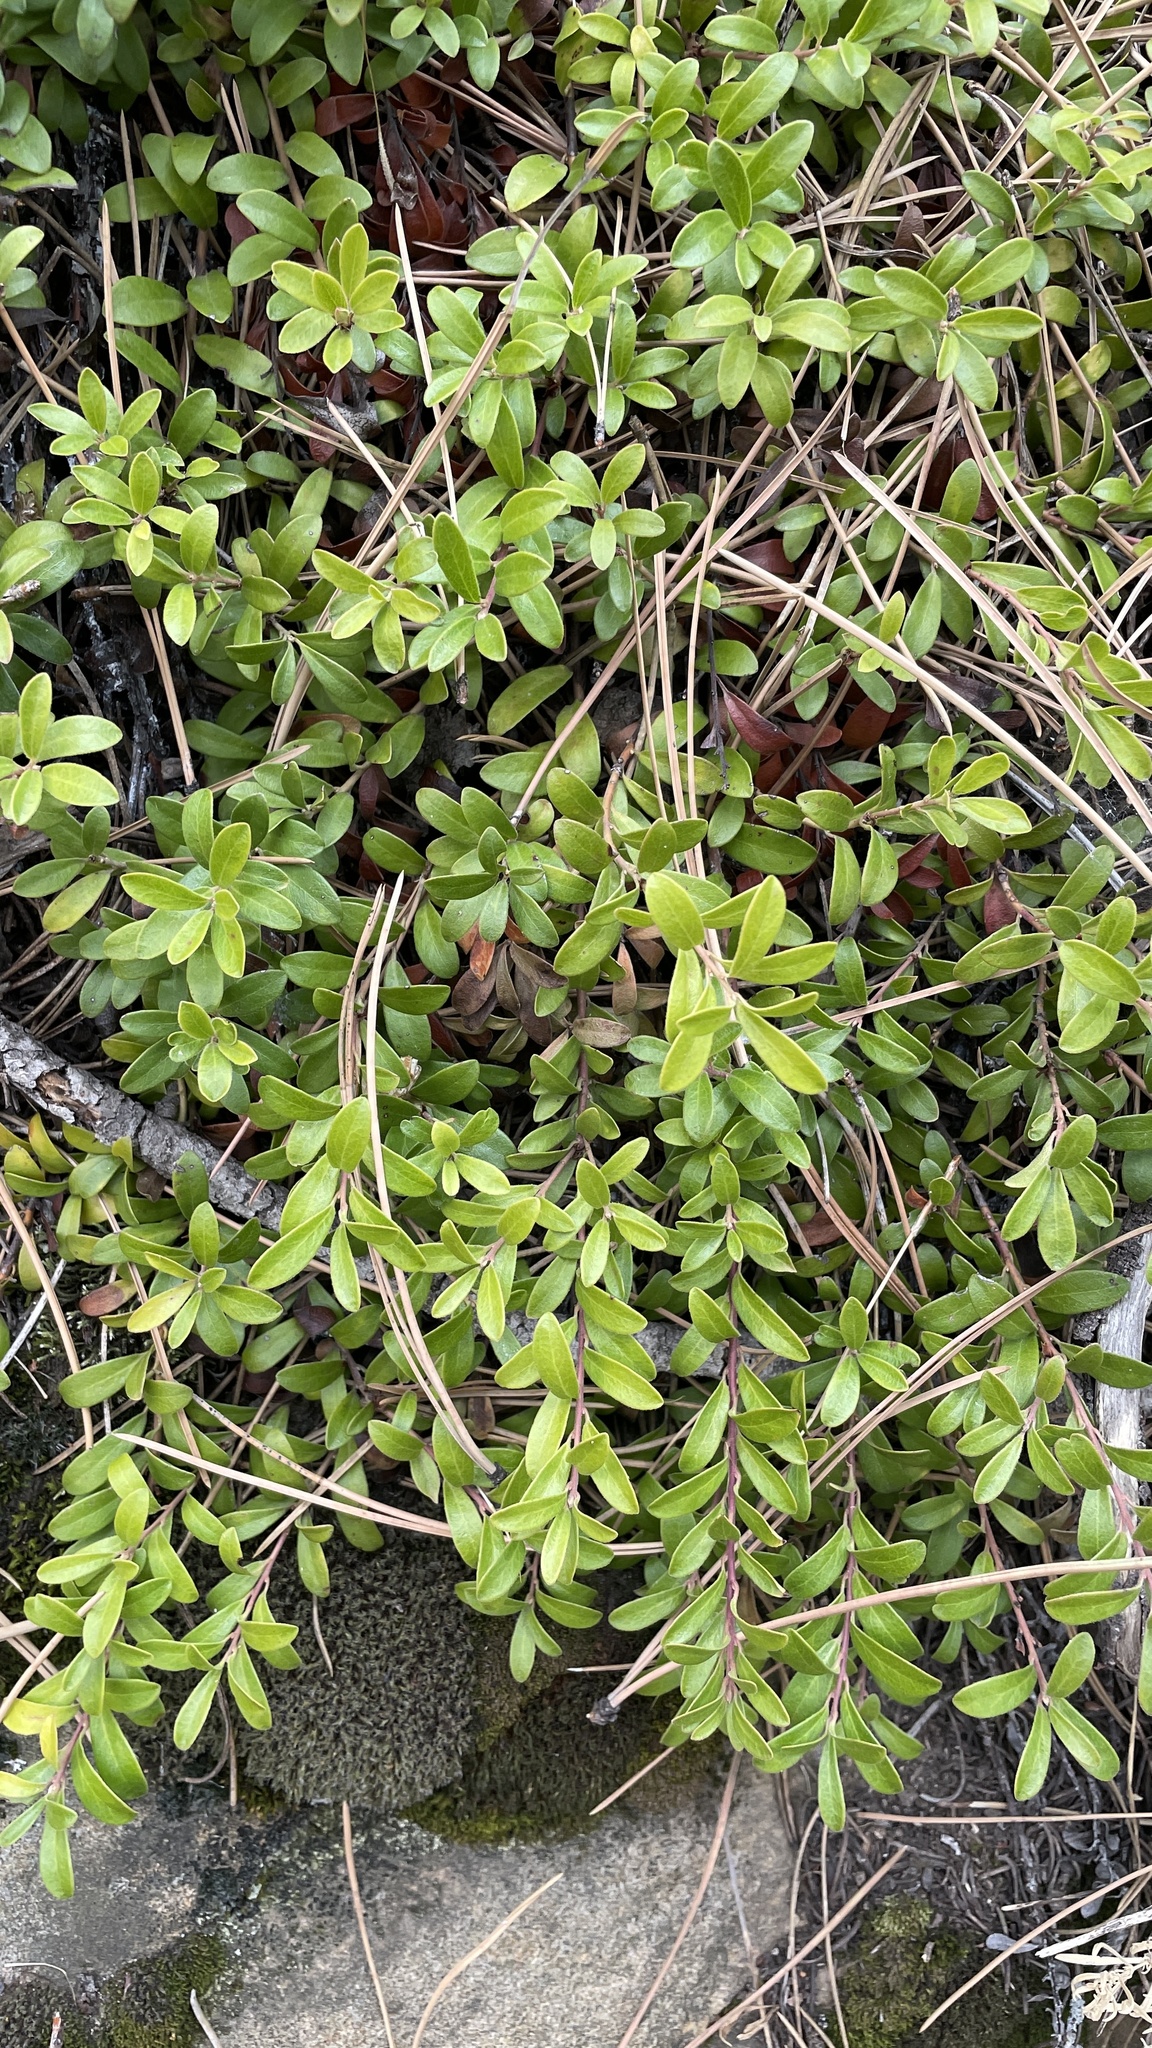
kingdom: Plantae
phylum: Tracheophyta
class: Magnoliopsida
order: Ericales
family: Ericaceae
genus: Arctostaphylos
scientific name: Arctostaphylos uva-ursi
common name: Bearberry
